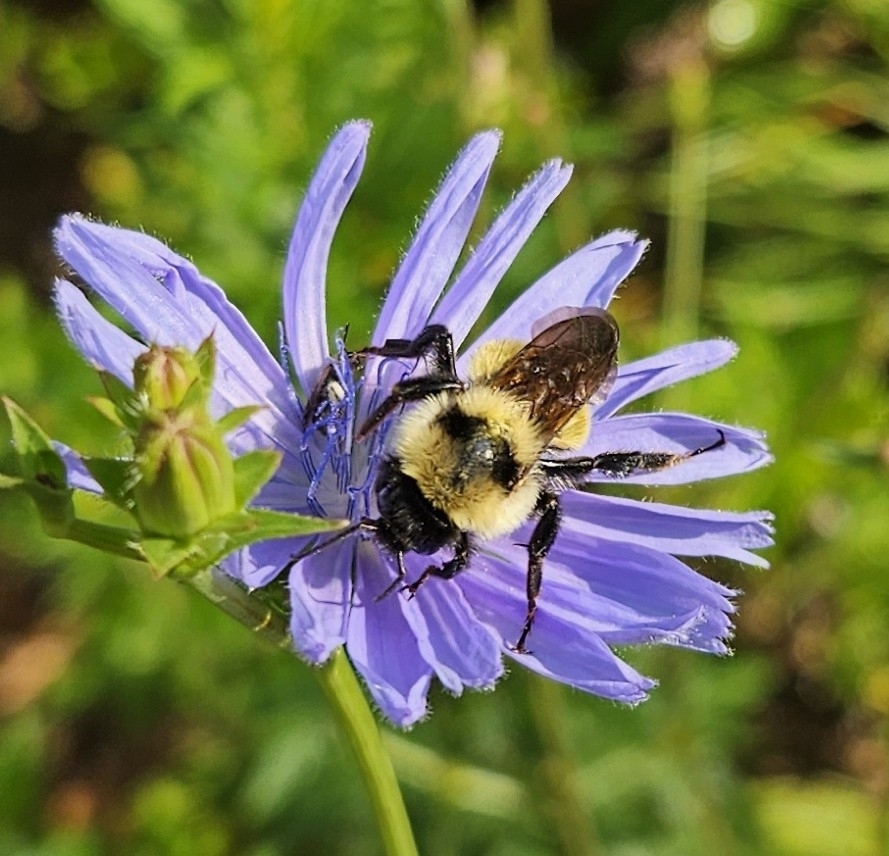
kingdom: Animalia
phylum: Arthropoda
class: Insecta
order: Hymenoptera
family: Apidae
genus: Bombus
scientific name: Bombus fervidus
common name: Yellow bumble bee
